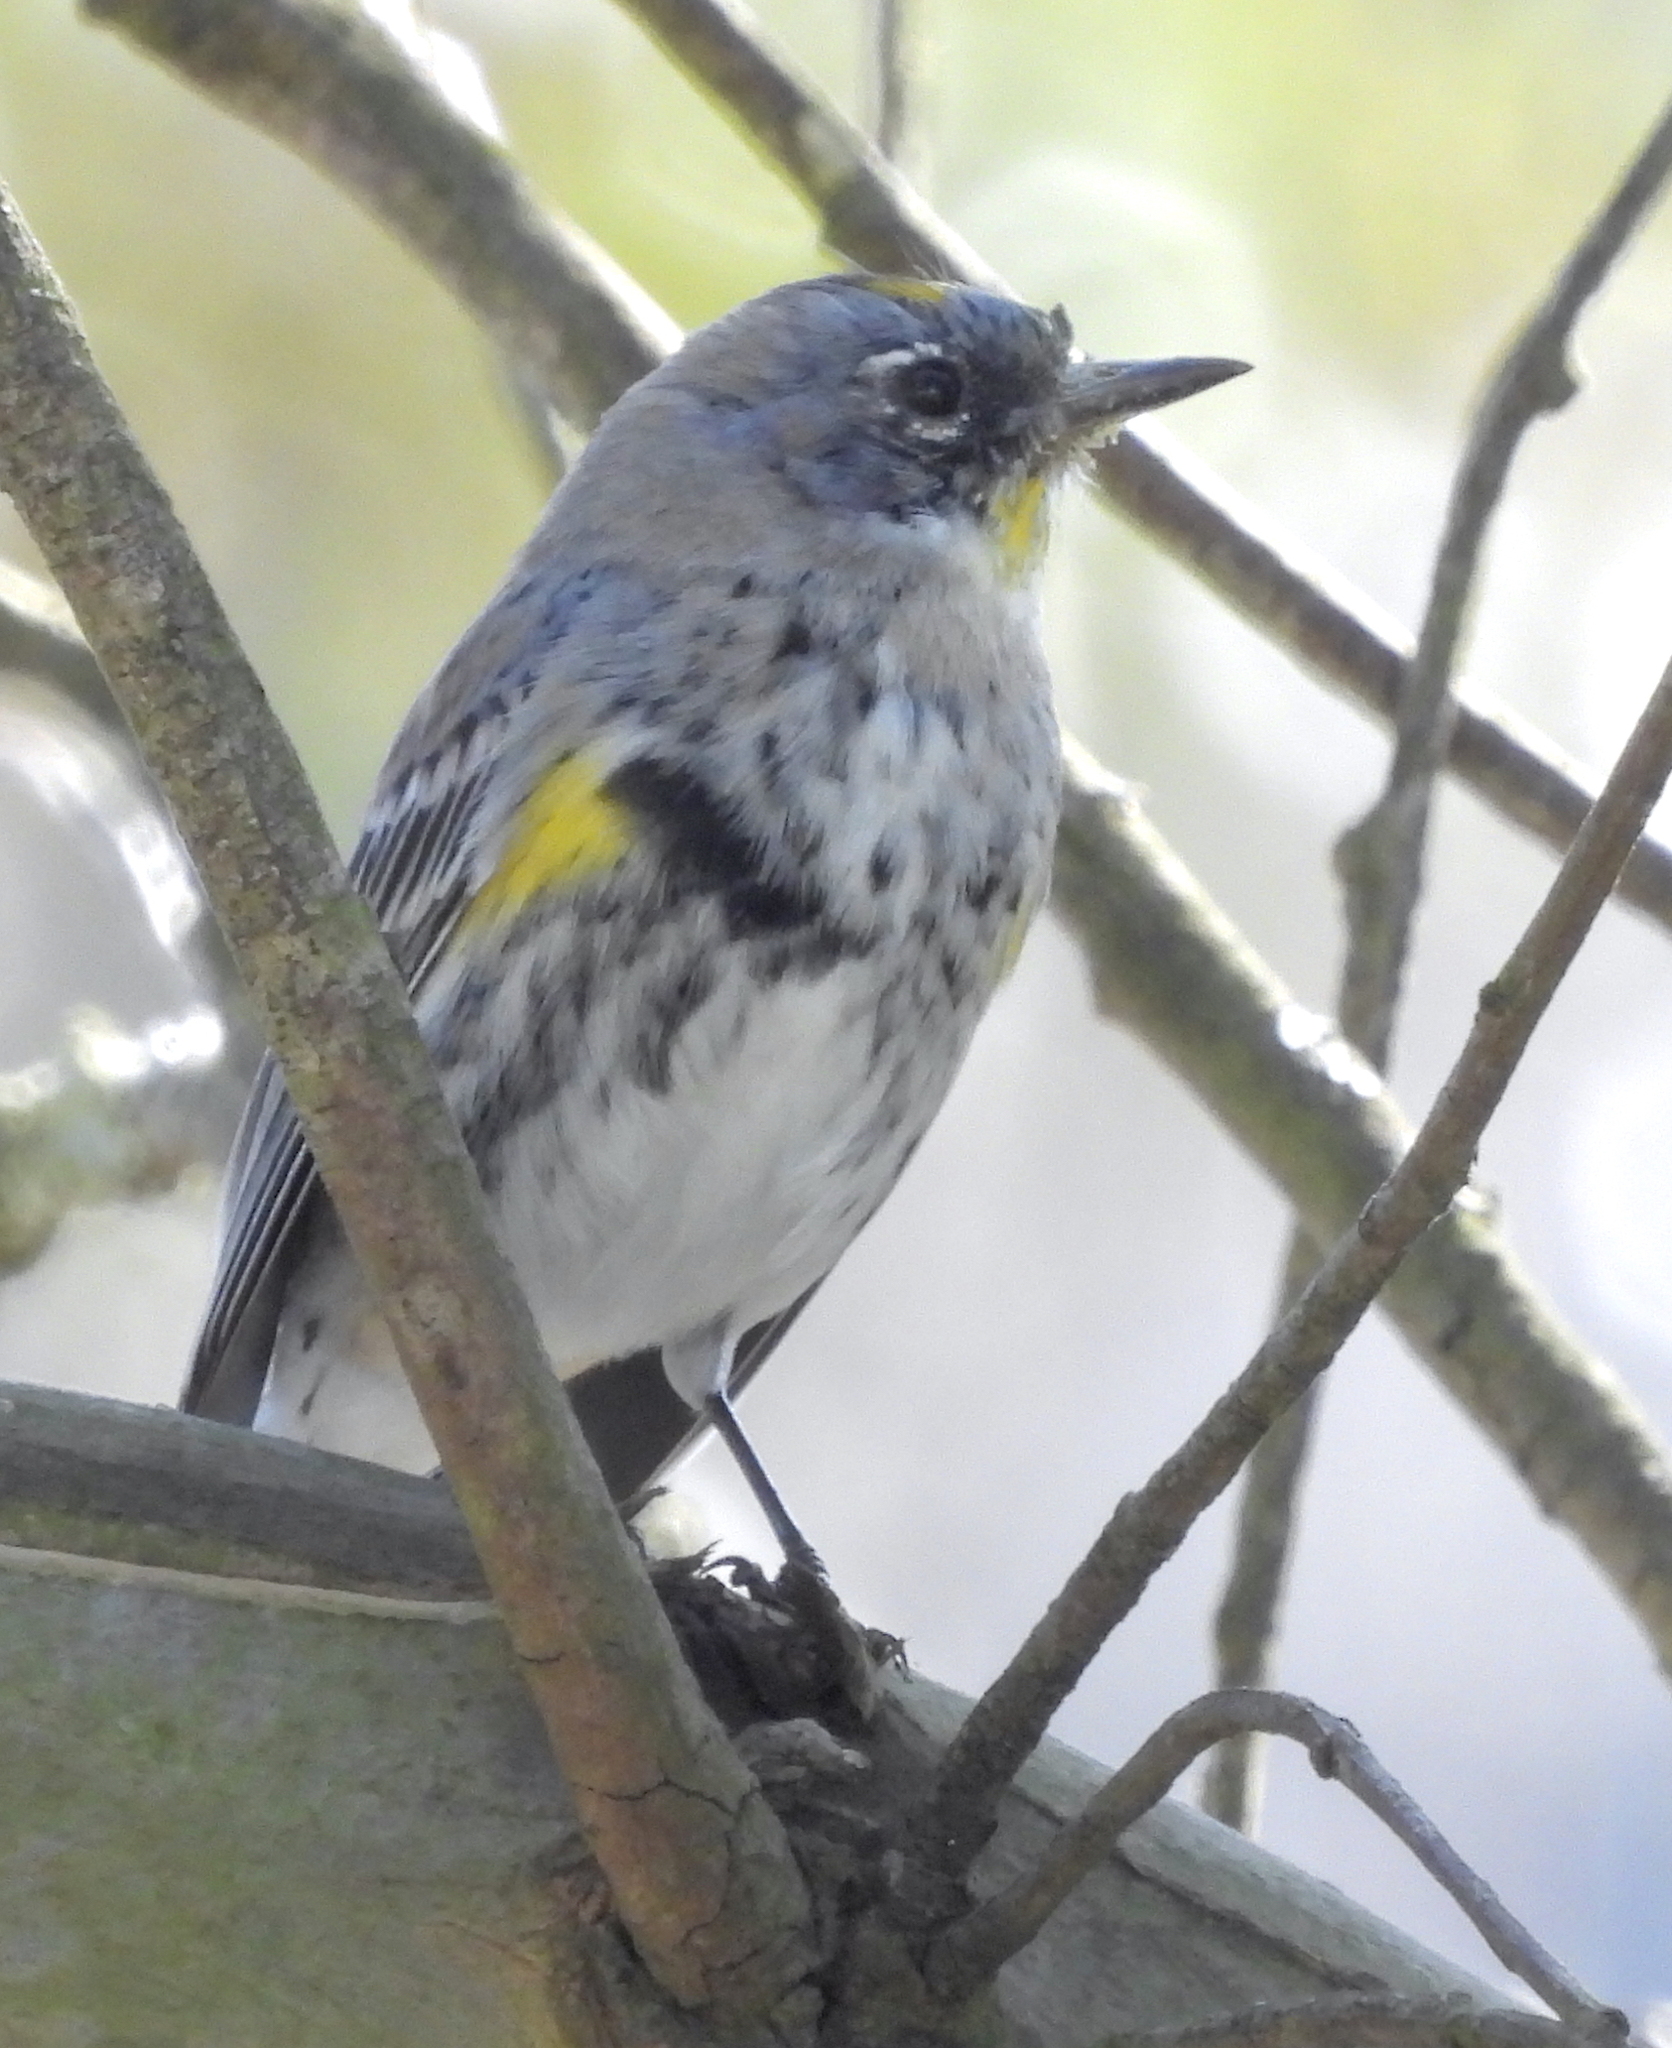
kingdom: Animalia
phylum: Chordata
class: Aves
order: Passeriformes
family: Parulidae
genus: Setophaga
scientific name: Setophaga
